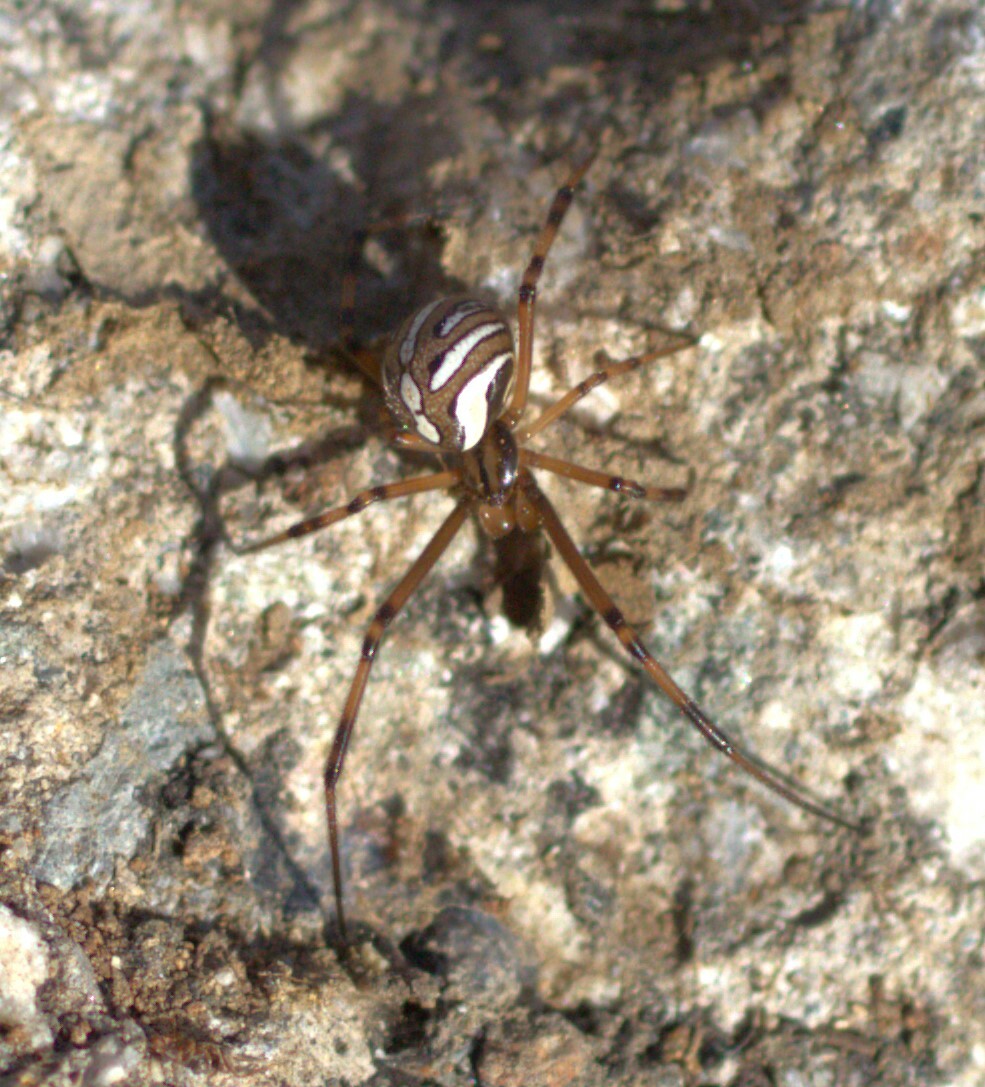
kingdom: Animalia
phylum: Arthropoda
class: Arachnida
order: Araneae
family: Theridiidae
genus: Latrodectus
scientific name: Latrodectus hesperus
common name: Western black widow
